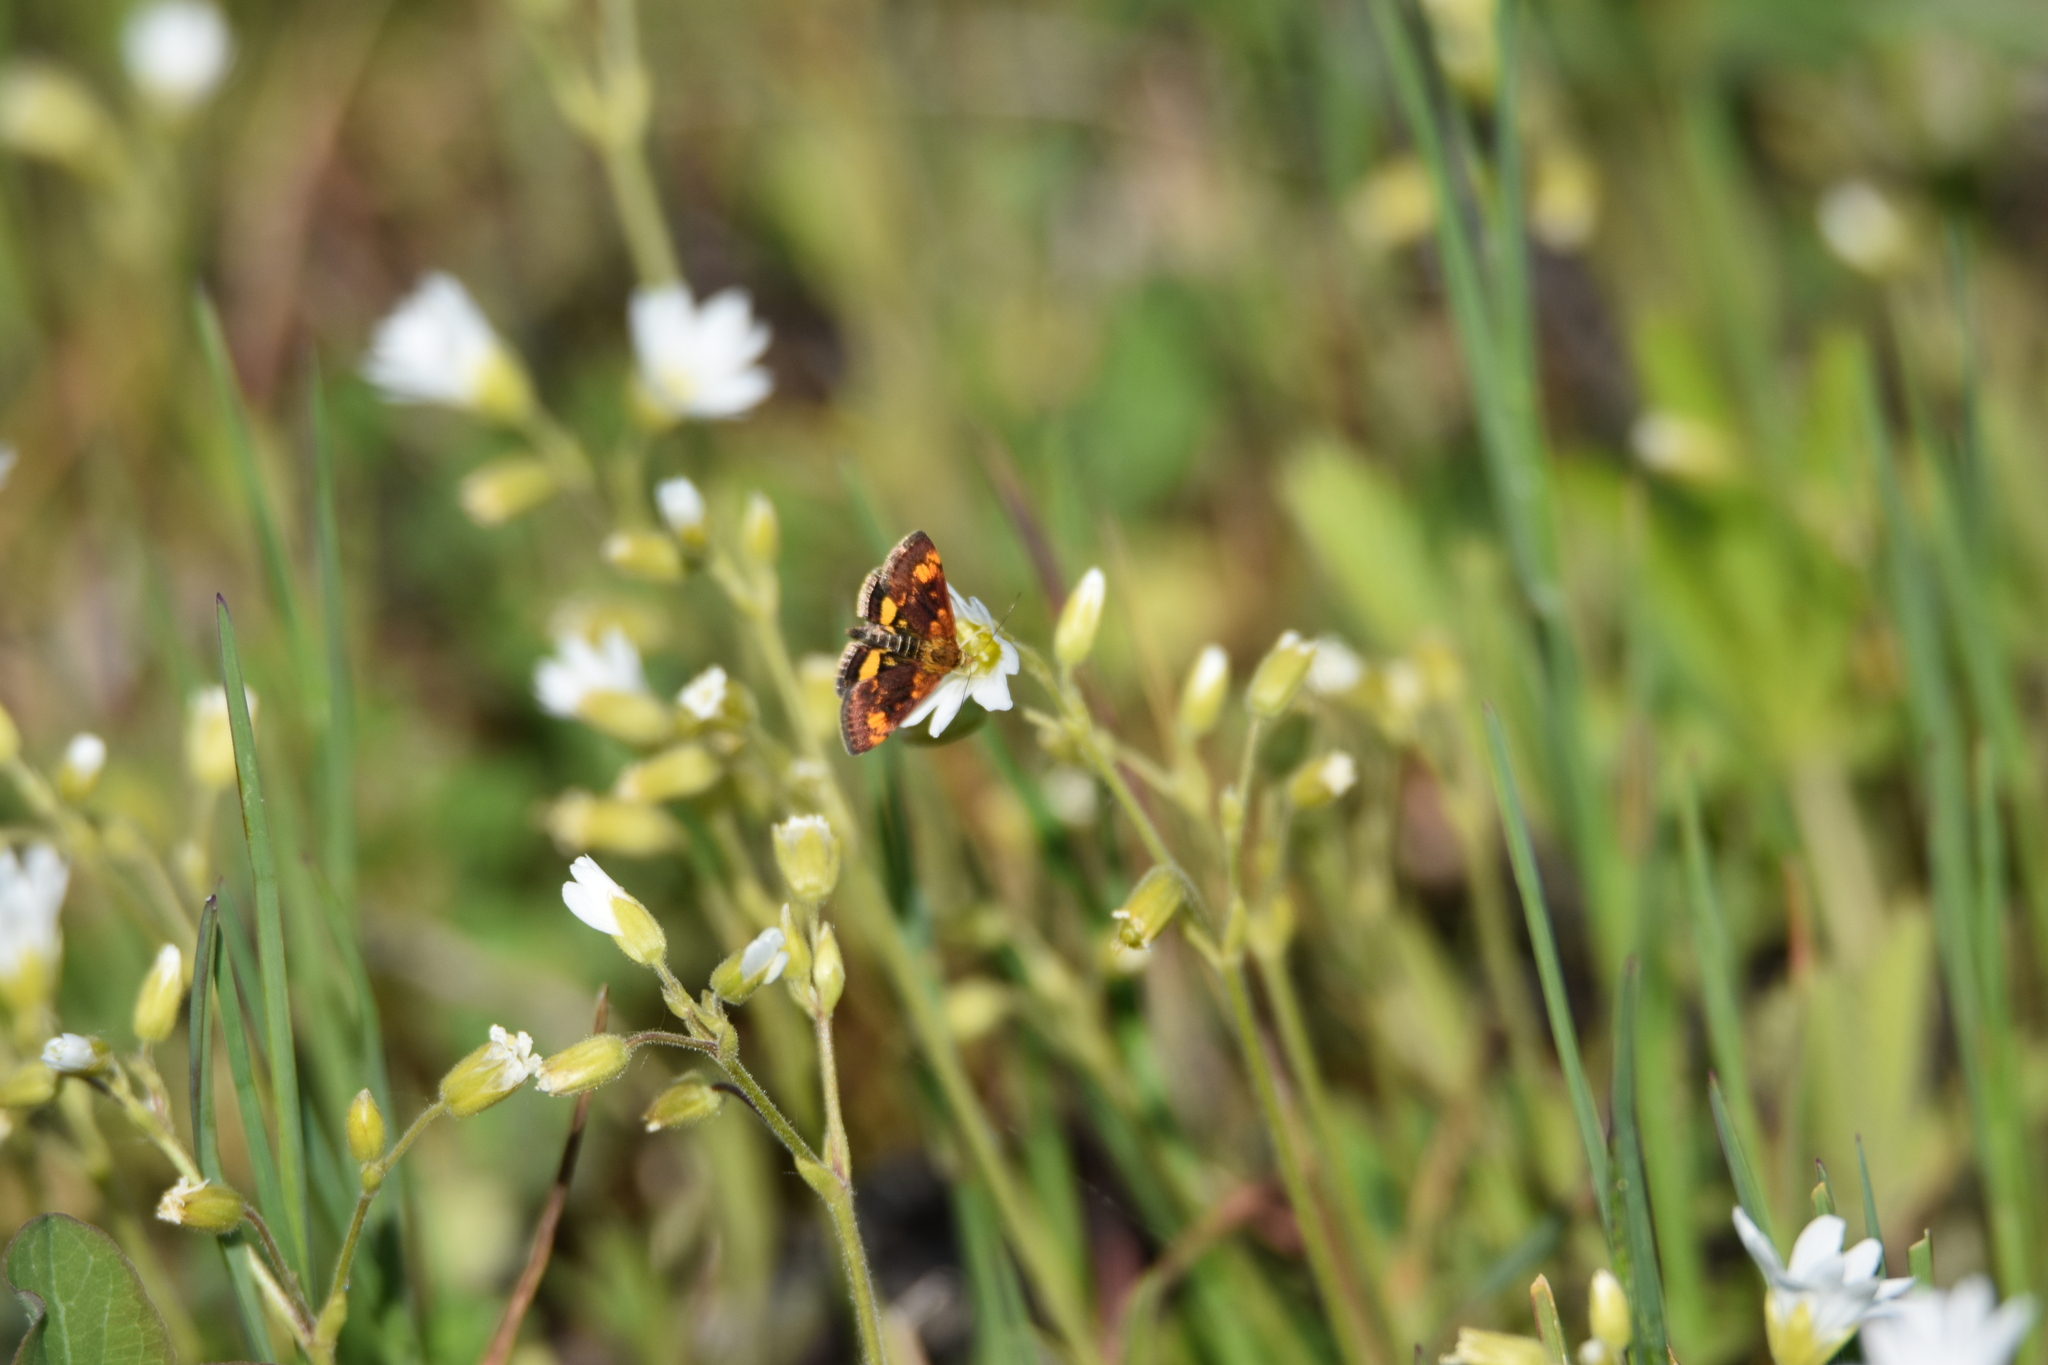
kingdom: Animalia
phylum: Arthropoda
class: Insecta
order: Lepidoptera
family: Crambidae
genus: Pyrausta
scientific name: Pyrausta orphisalis
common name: Orange mint moth
